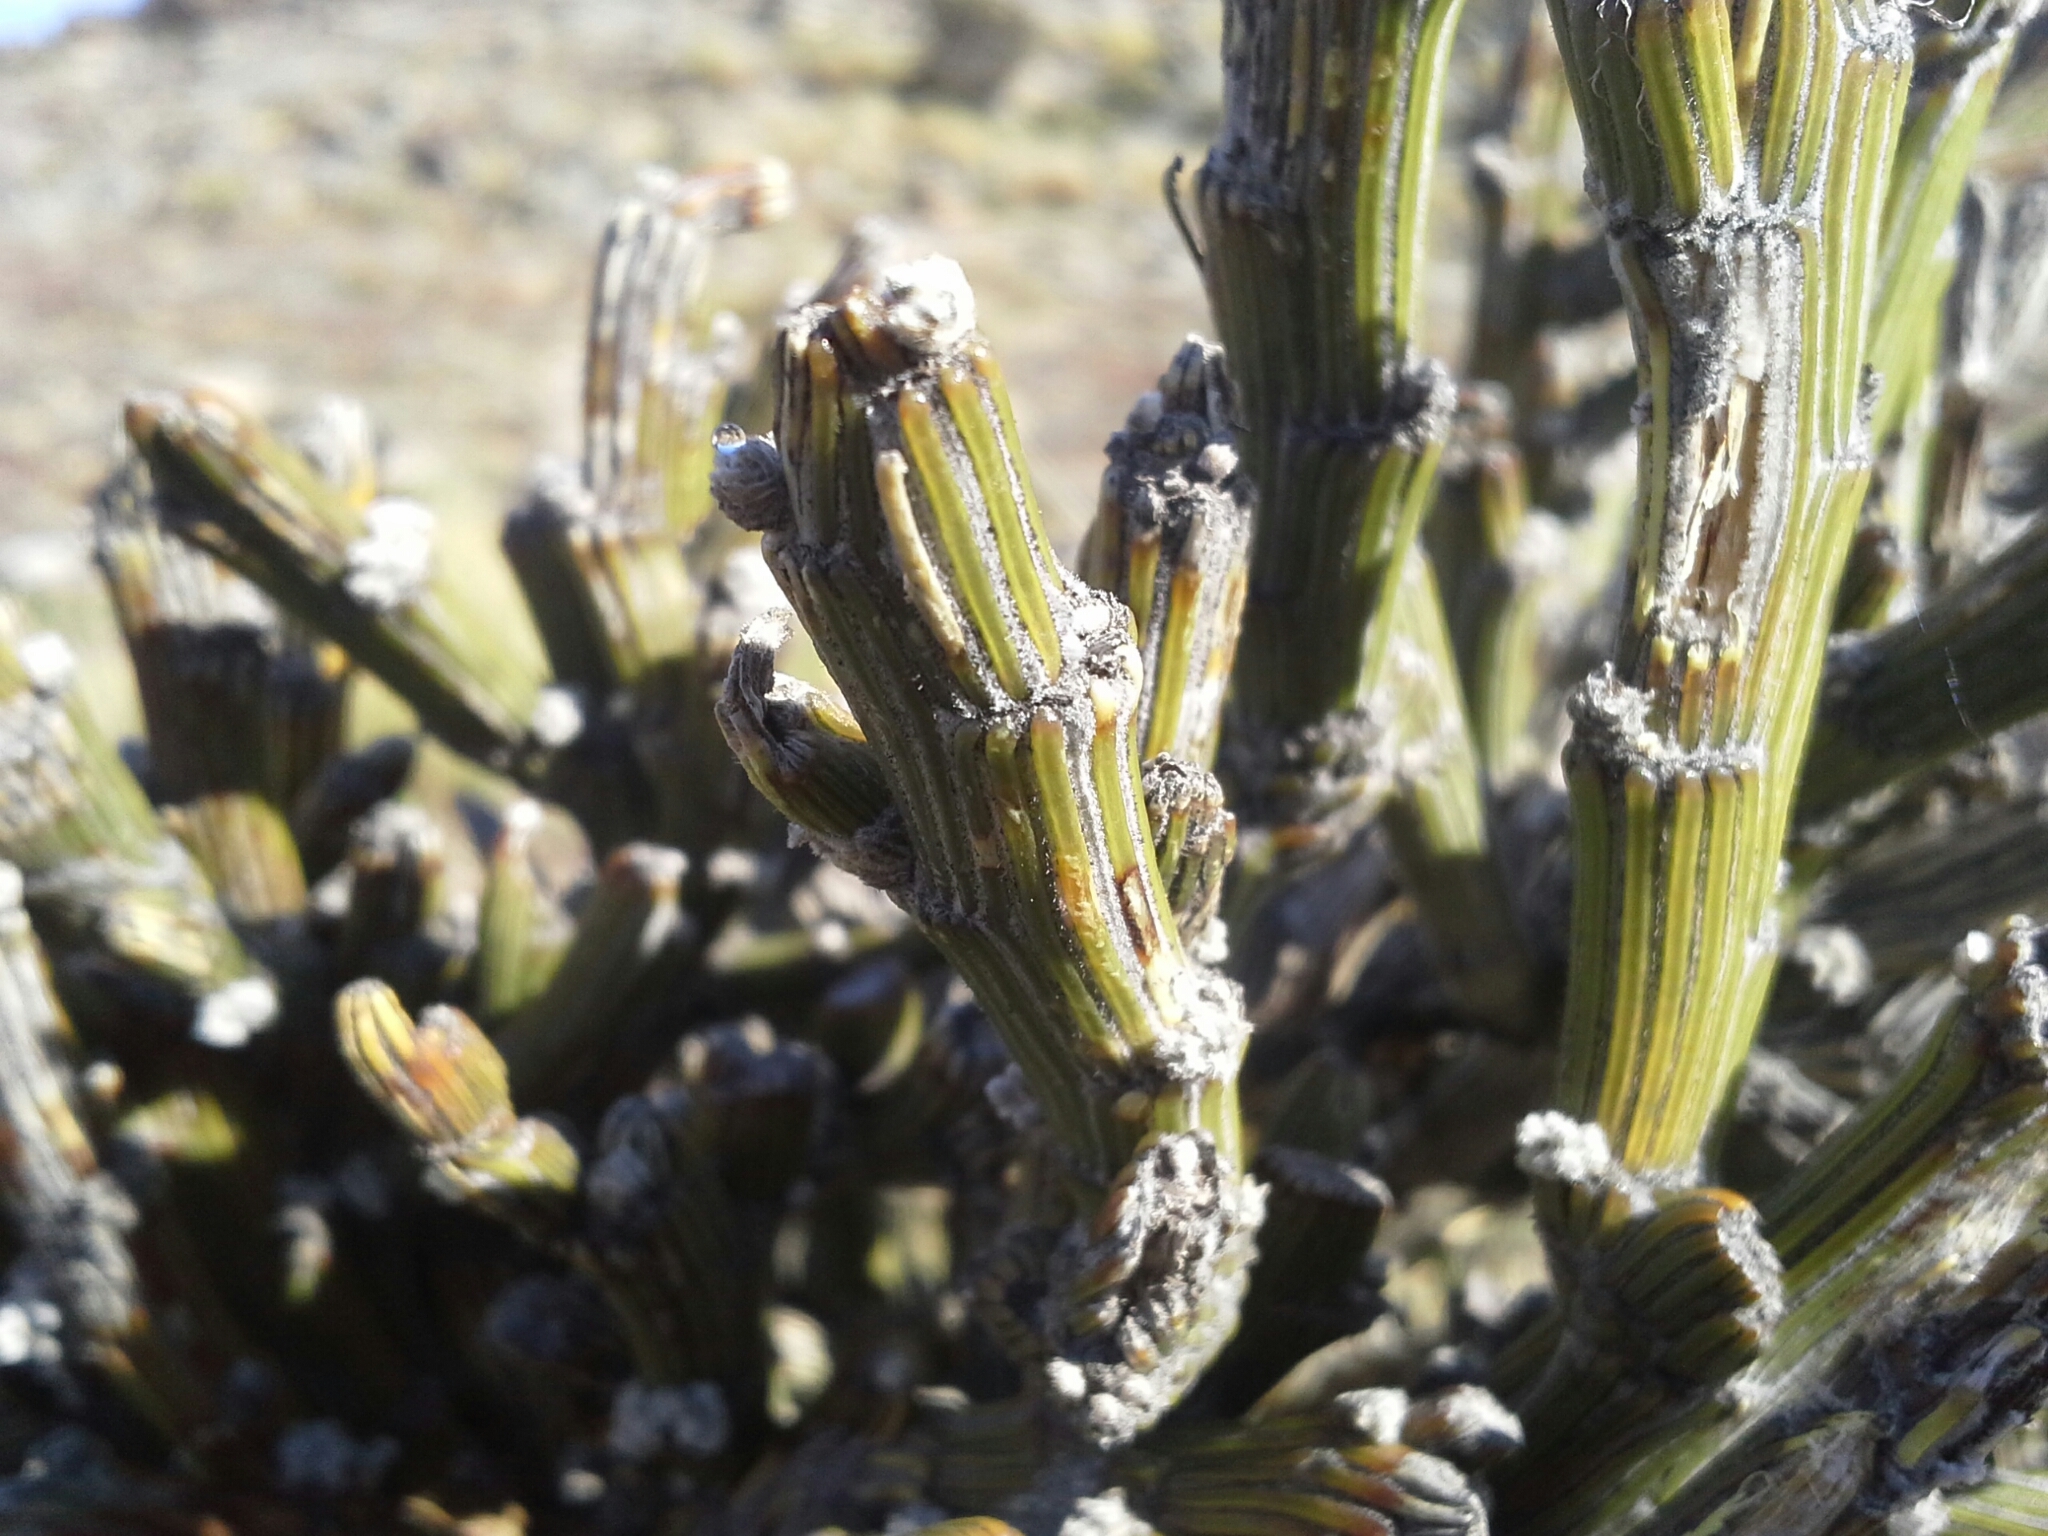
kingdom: Plantae
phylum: Tracheophyta
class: Magnoliopsida
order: Fabales
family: Fabaceae
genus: Carmichaelia
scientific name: Carmichaelia crassicaulis
